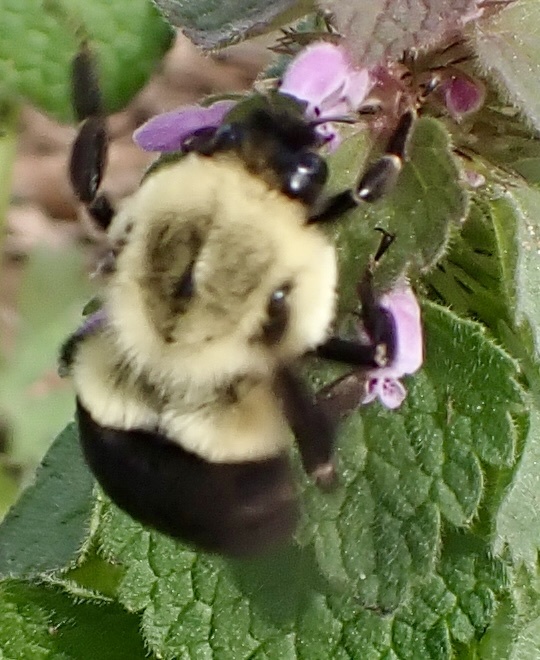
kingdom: Animalia
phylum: Arthropoda
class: Insecta
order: Hymenoptera
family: Apidae
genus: Bombus
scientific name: Bombus impatiens
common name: Common eastern bumble bee
